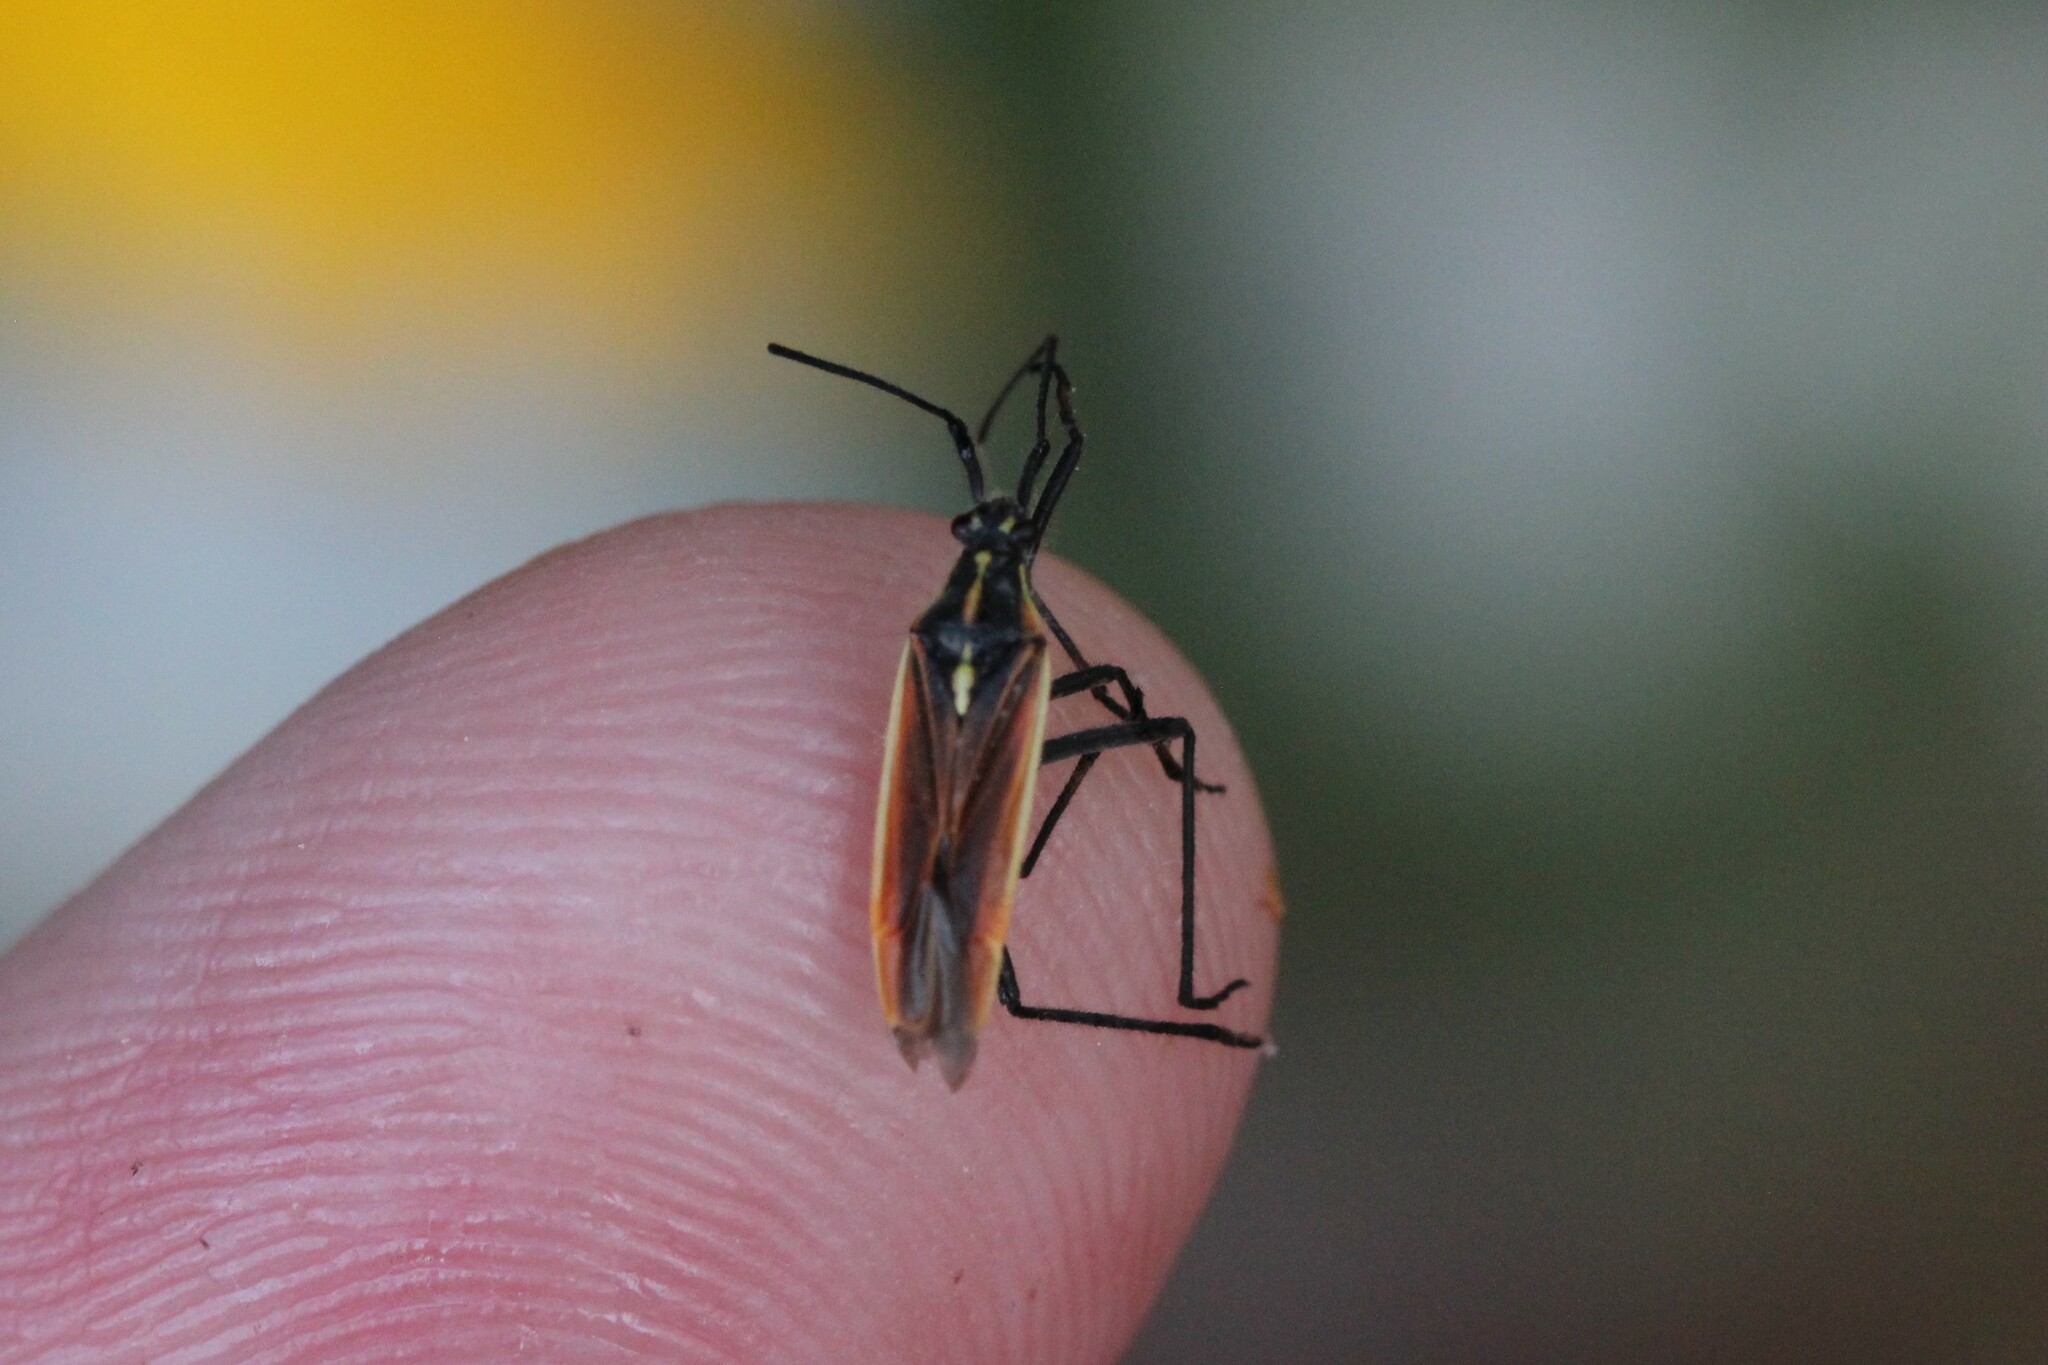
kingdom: Animalia
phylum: Arthropoda
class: Insecta
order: Hemiptera
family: Miridae
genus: Leptopterna
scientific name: Leptopterna dolabrata
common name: Meadow plant bug
